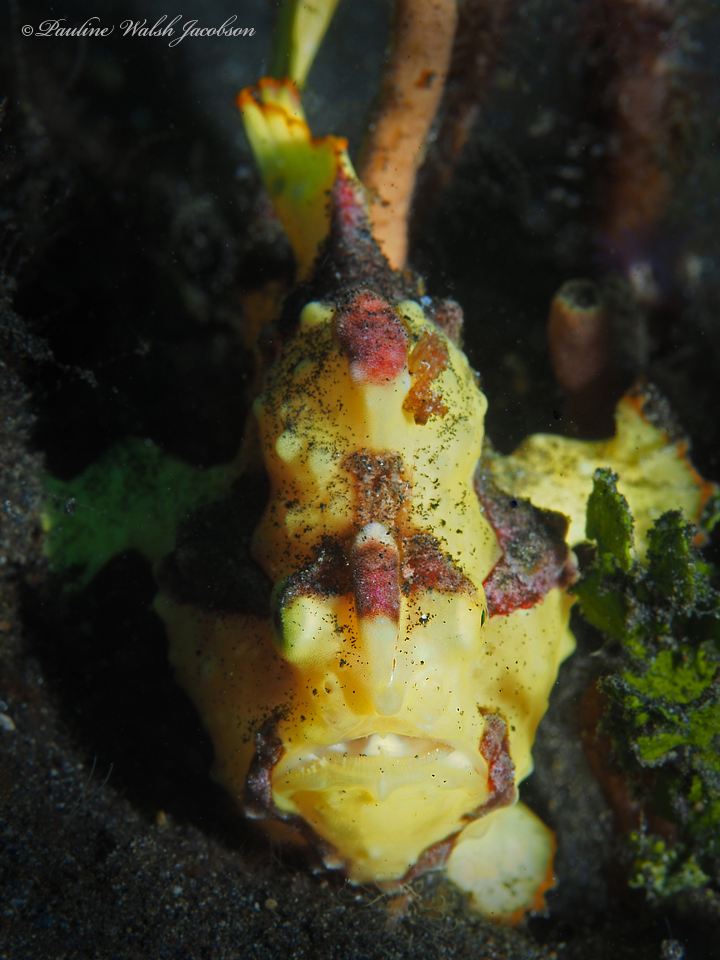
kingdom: Animalia
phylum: Chordata
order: Lophiiformes
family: Antennariidae
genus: Antennarius
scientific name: Antennarius maculatus
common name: Warty frogfish
